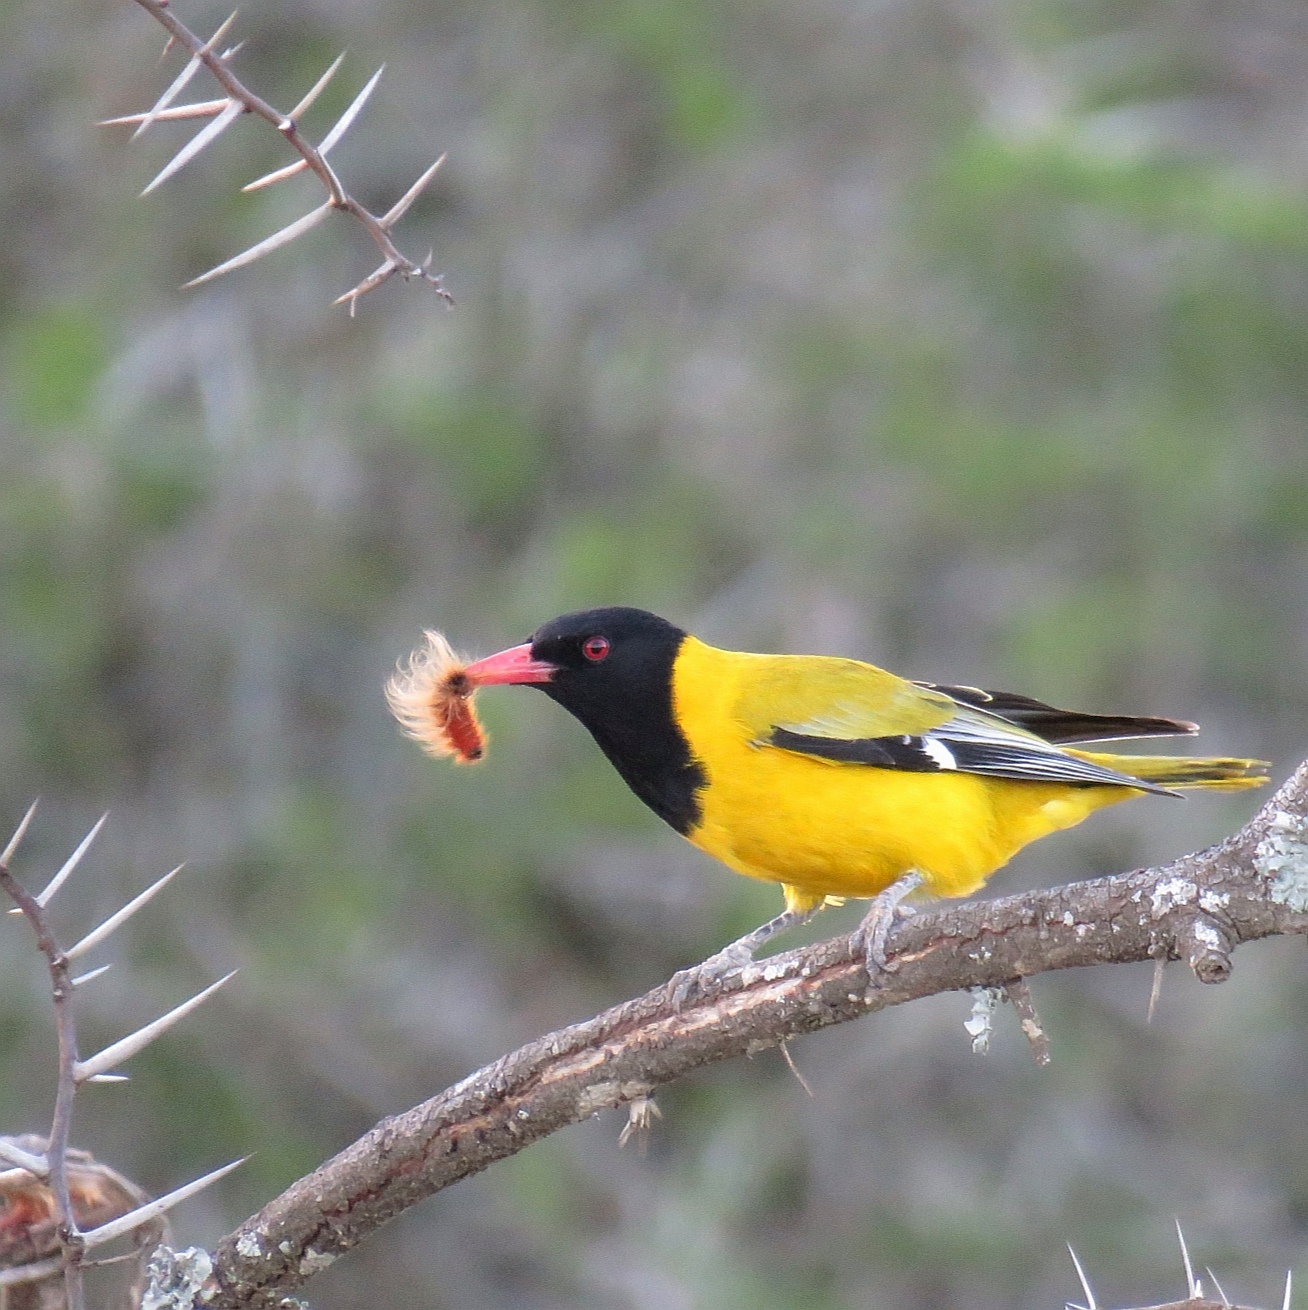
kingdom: Animalia
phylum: Chordata
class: Aves
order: Passeriformes
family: Oriolidae
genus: Oriolus
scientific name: Oriolus larvatus
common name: Black-headed oriole
